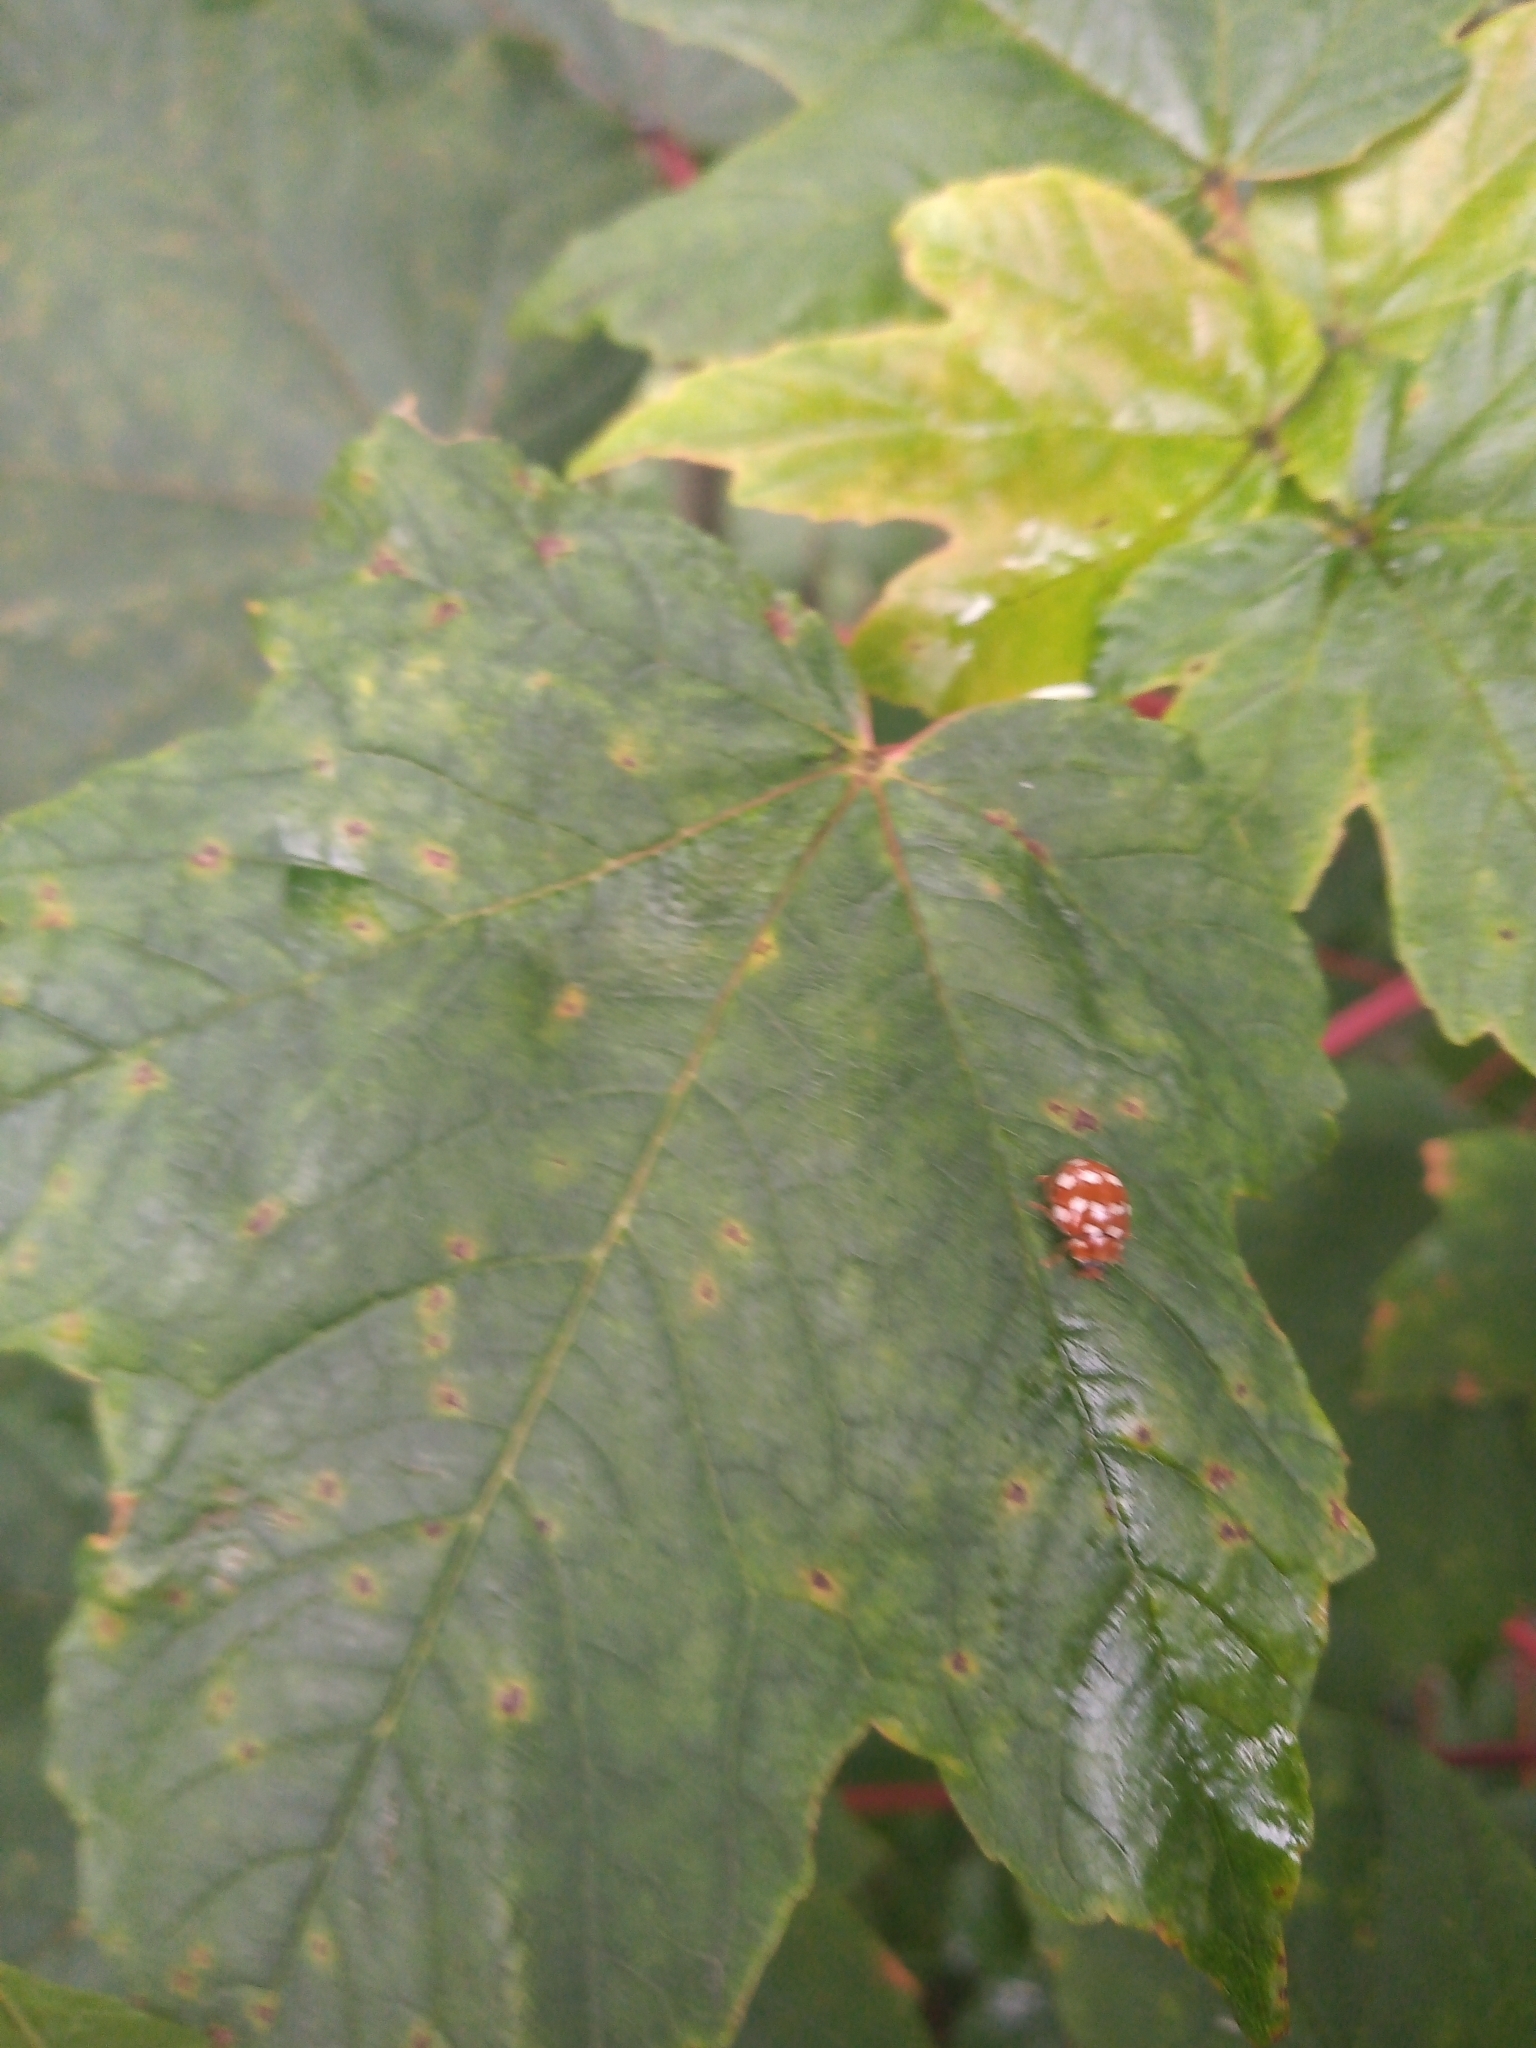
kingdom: Animalia
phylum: Arthropoda
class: Insecta
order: Coleoptera
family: Coccinellidae
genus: Calvia
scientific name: Calvia quatuordecimguttata
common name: Cream-spot ladybird
